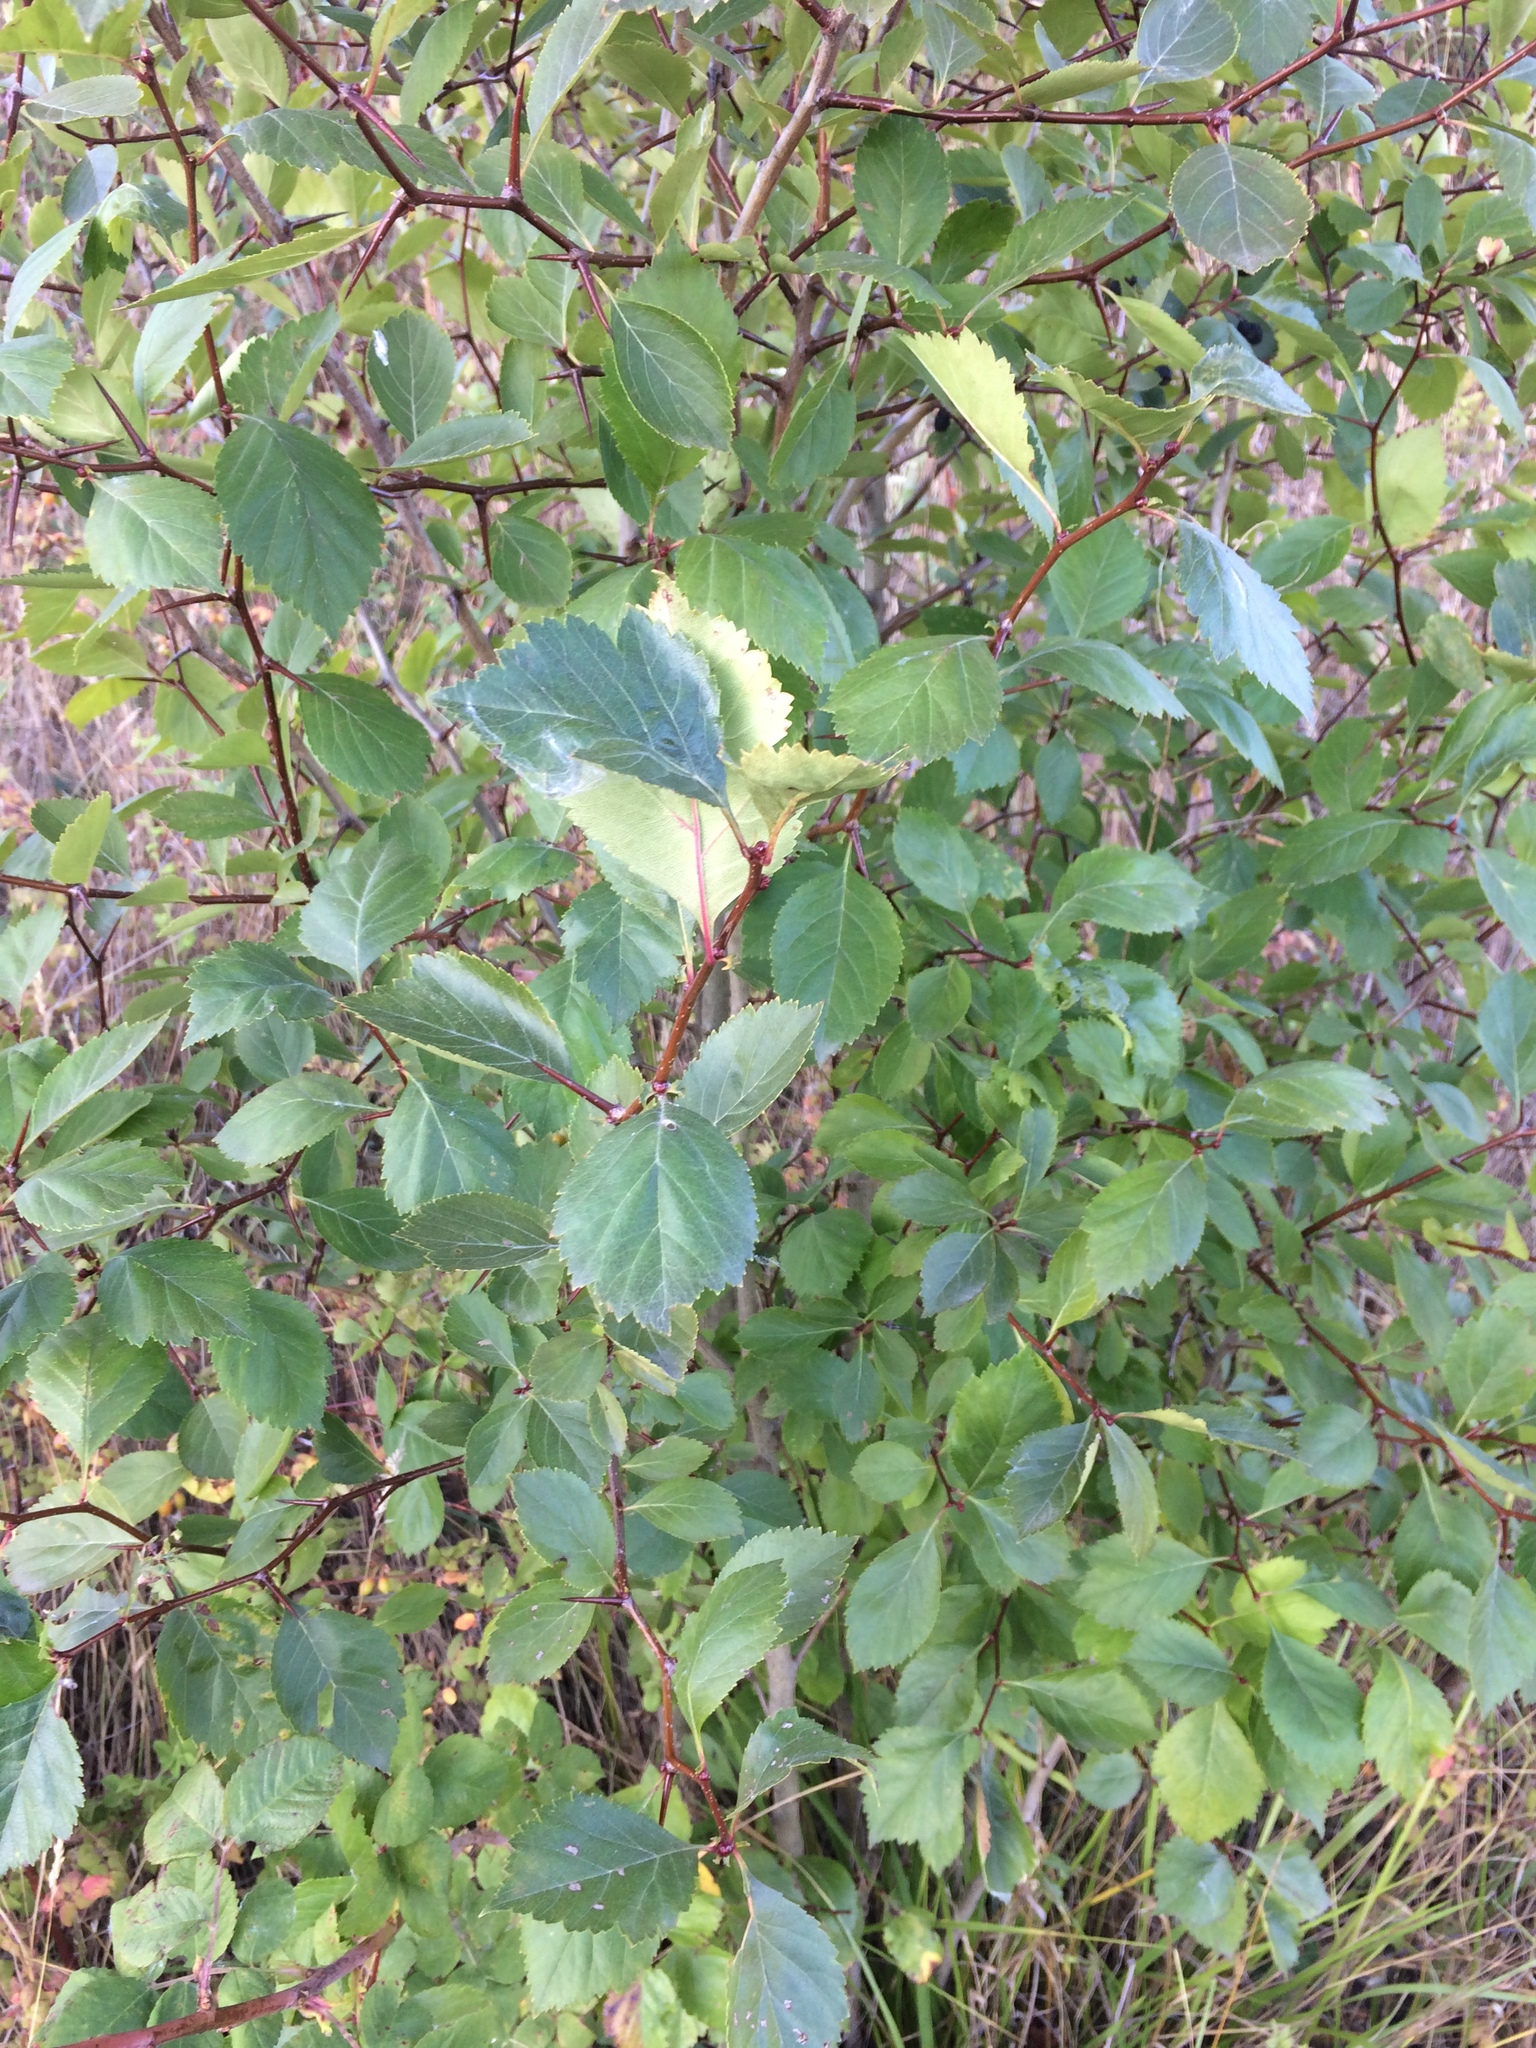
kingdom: Plantae
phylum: Tracheophyta
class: Magnoliopsida
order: Rosales
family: Rosaceae
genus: Crataegus
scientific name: Crataegus gaylussacia
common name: Huckleberry hawthorn
